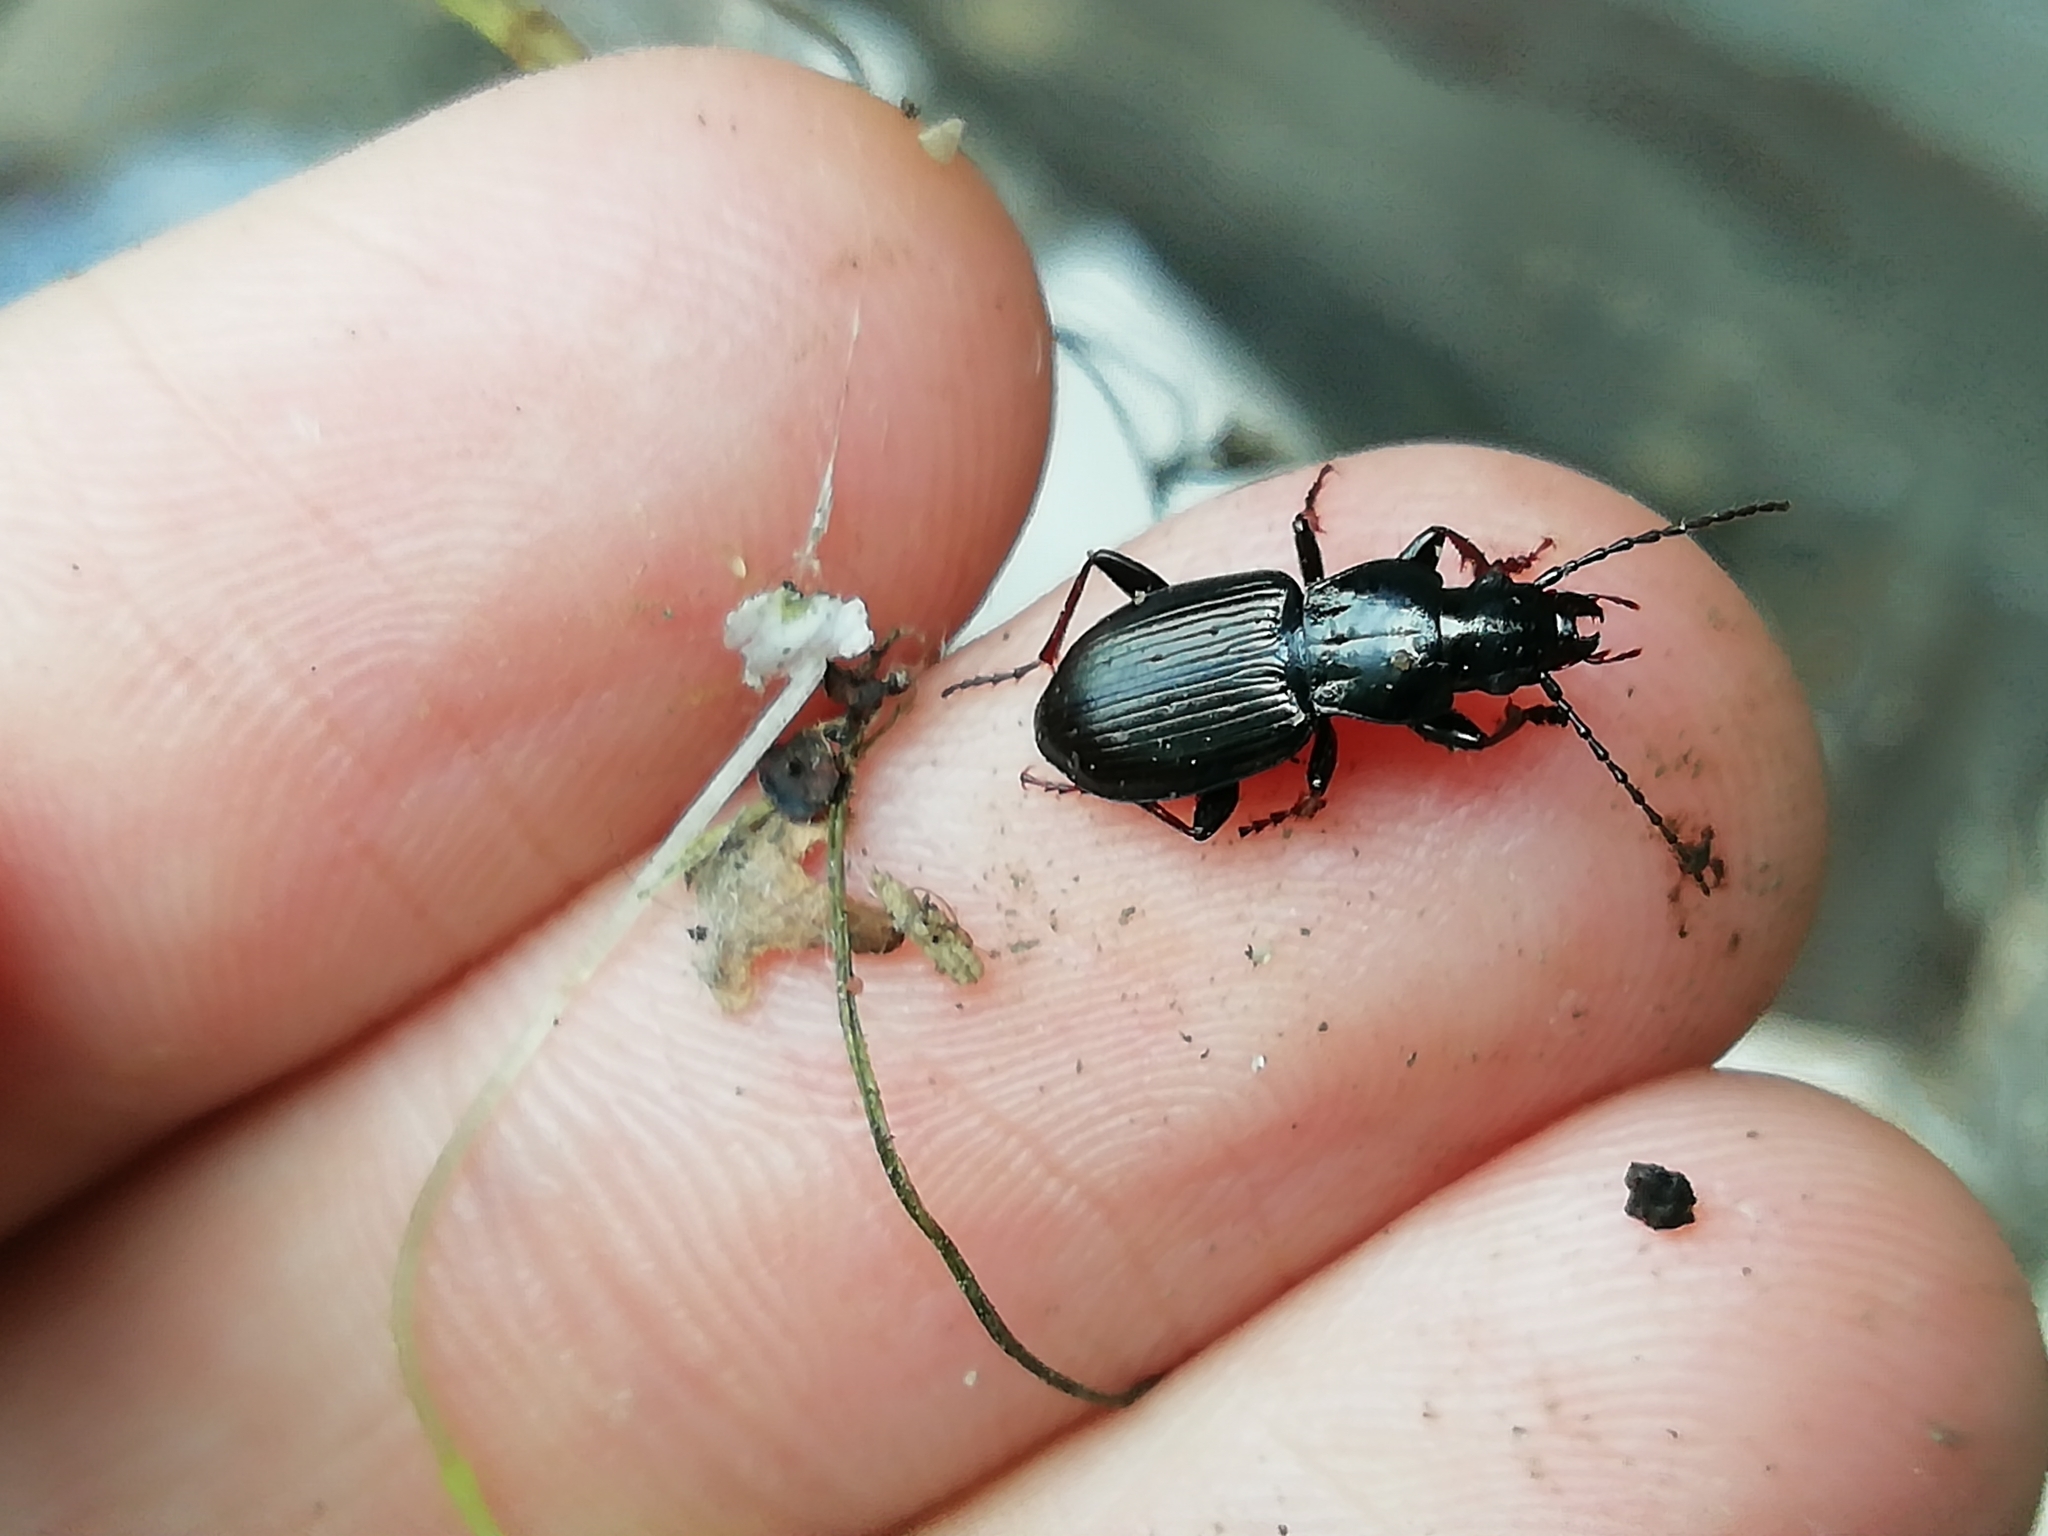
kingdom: Animalia
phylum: Arthropoda
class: Insecta
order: Coleoptera
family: Carabidae
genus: Pterostichus
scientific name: Pterostichus oblongopunctatus
